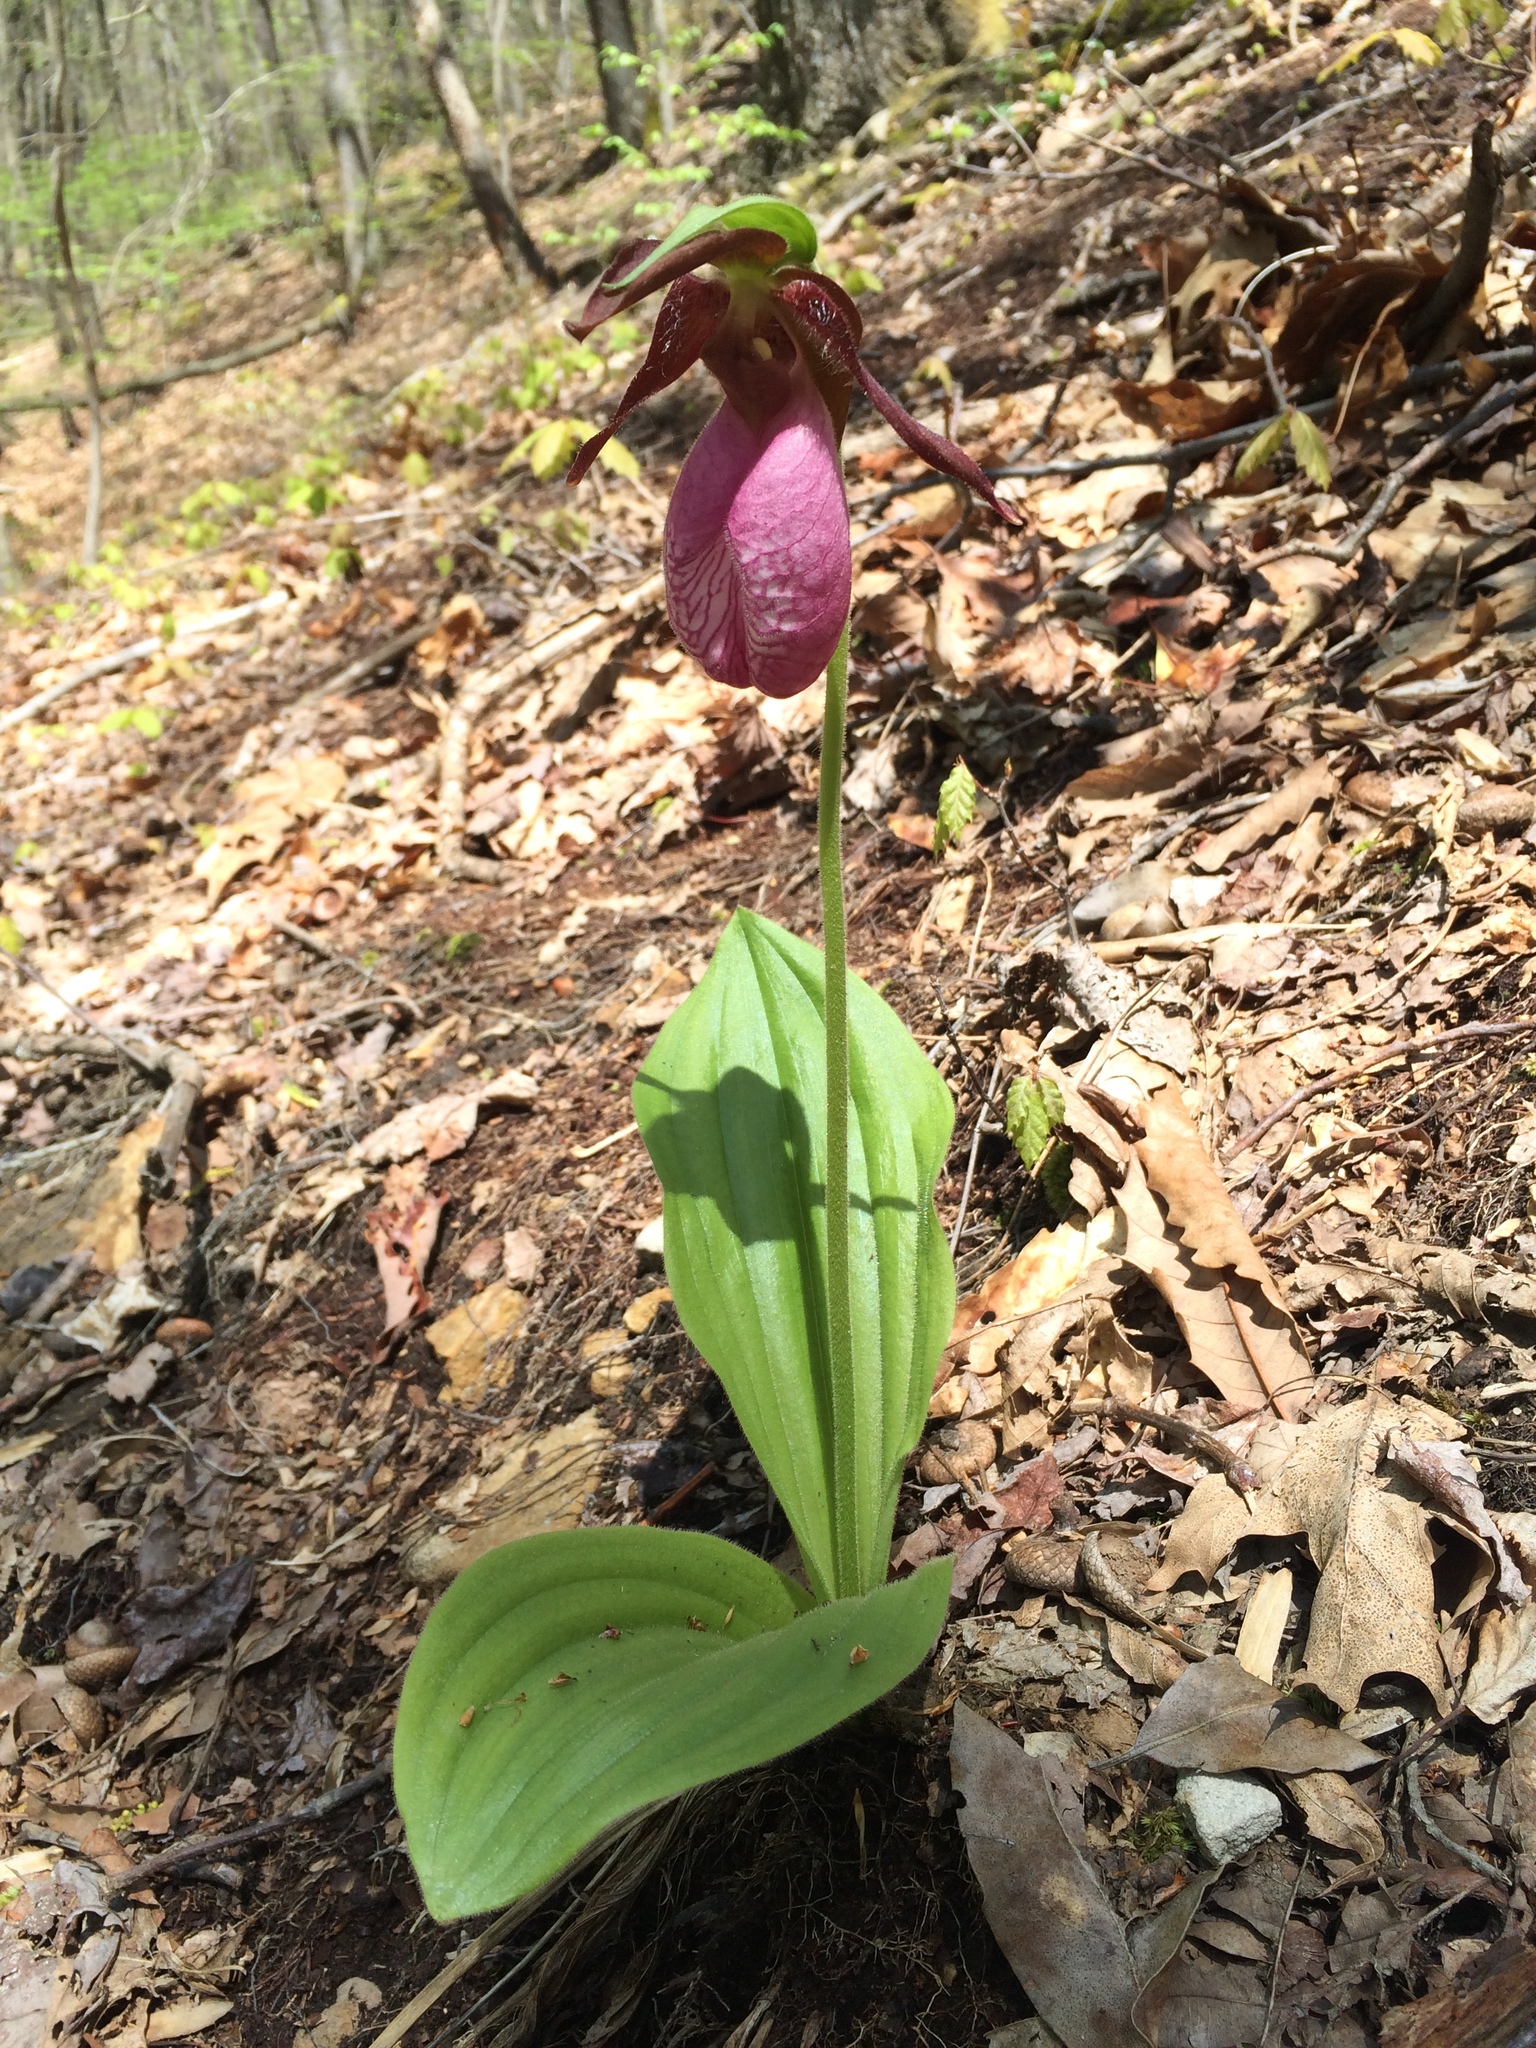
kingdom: Plantae
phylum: Tracheophyta
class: Liliopsida
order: Asparagales
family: Orchidaceae
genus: Cypripedium
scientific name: Cypripedium acaule
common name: Pink lady's-slipper
